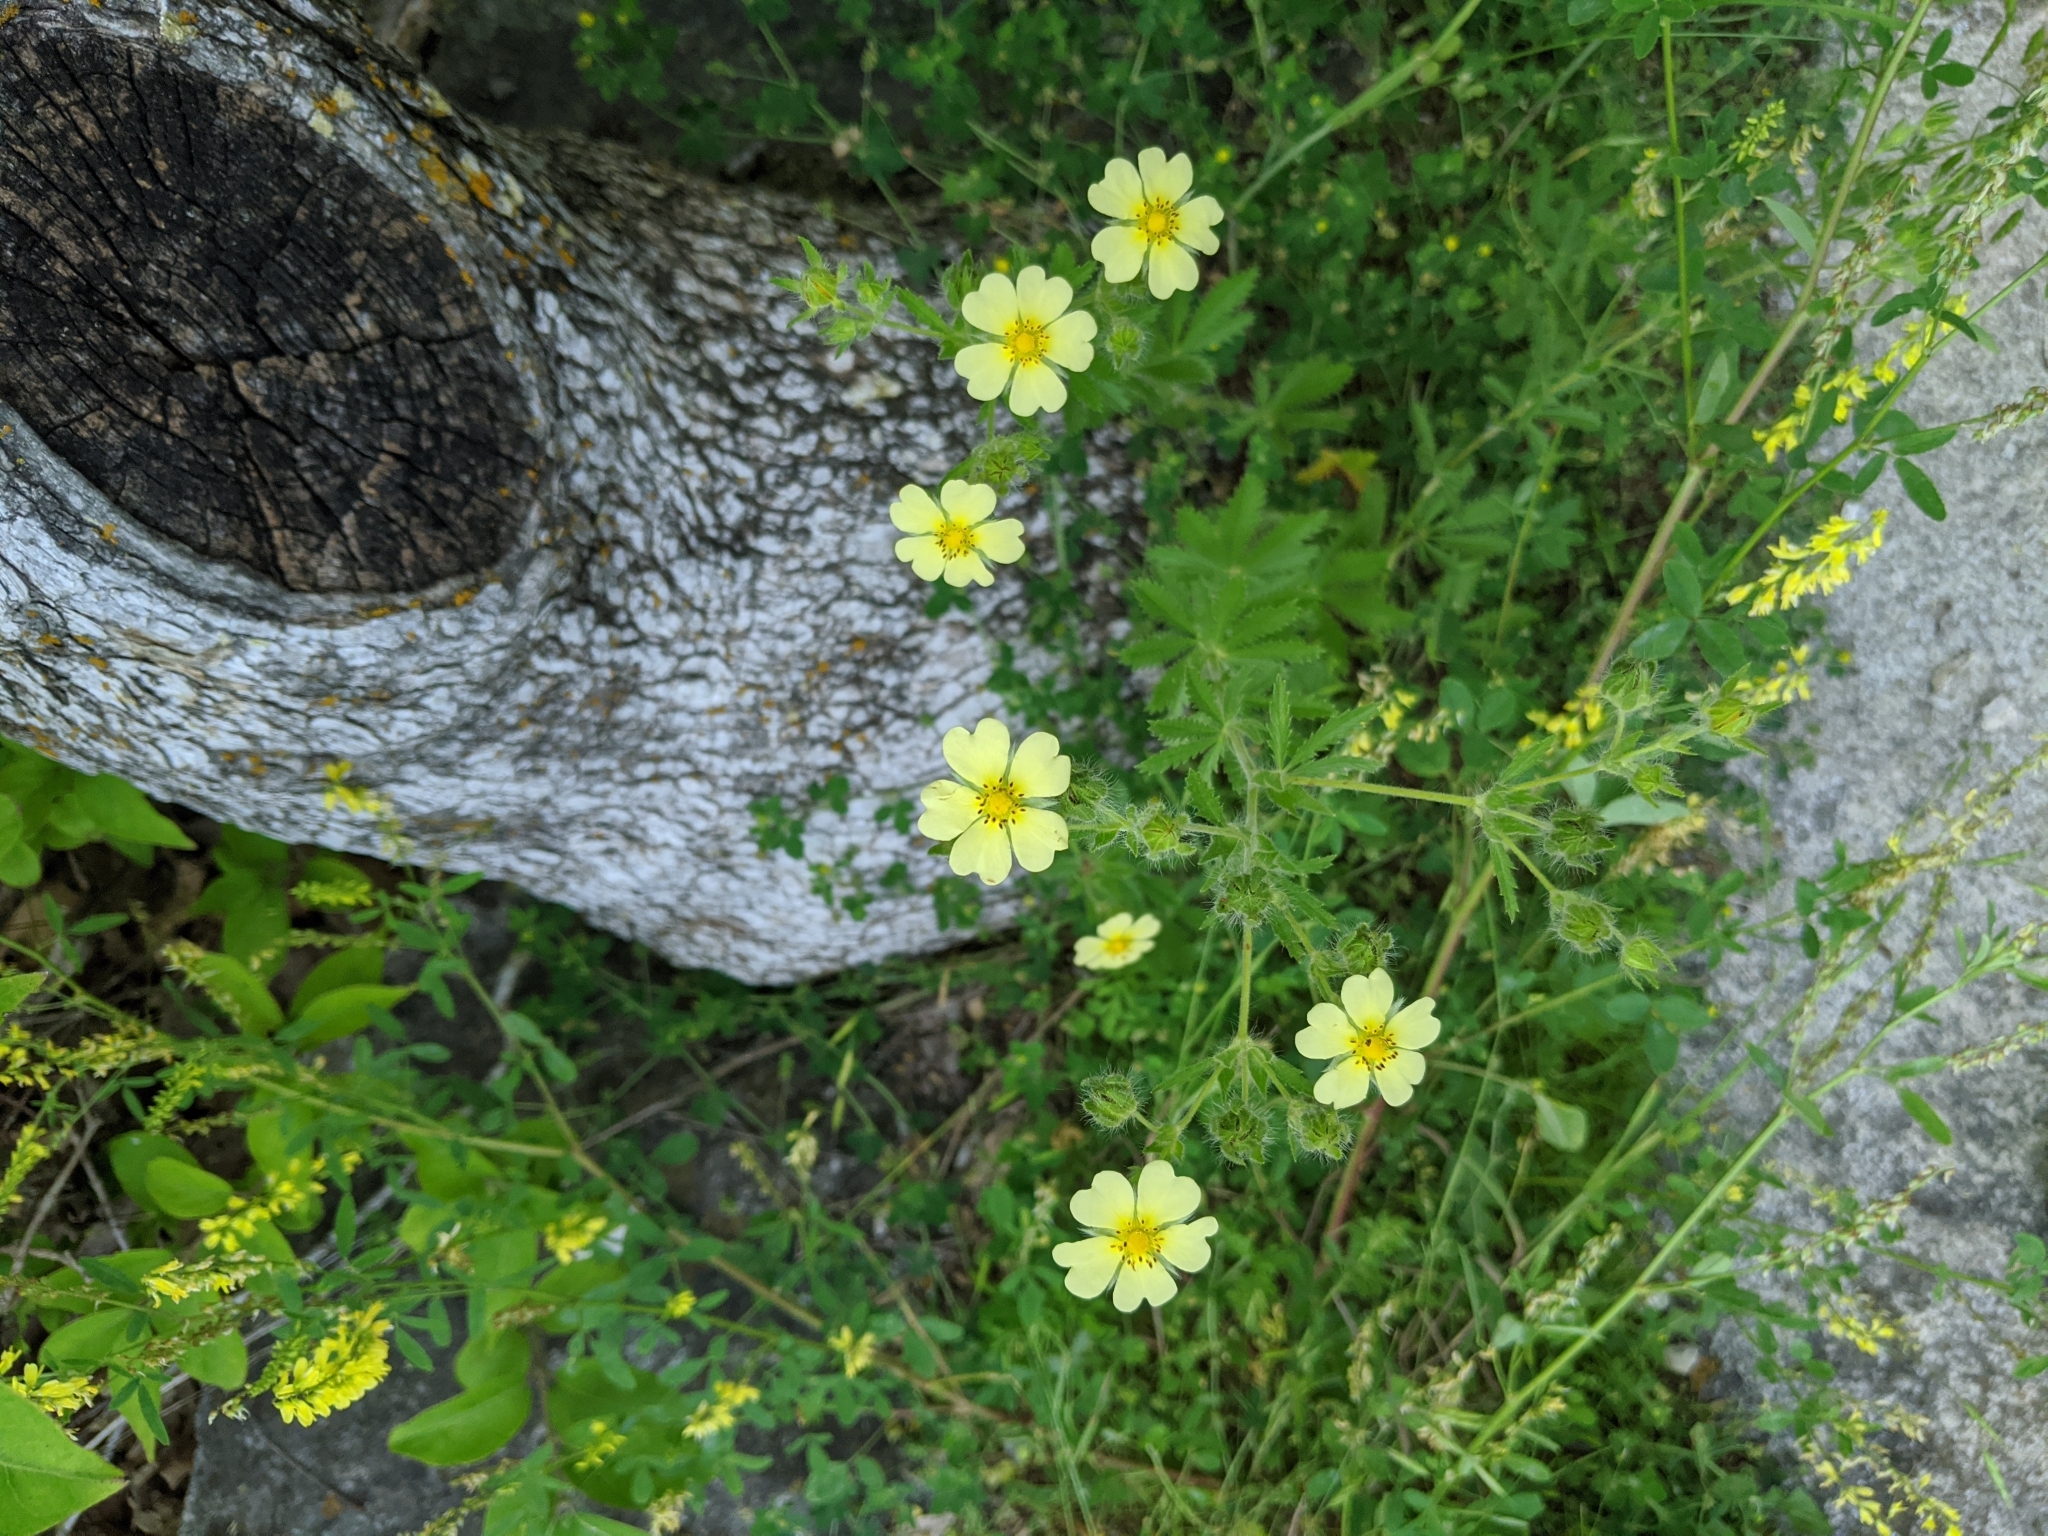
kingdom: Plantae
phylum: Tracheophyta
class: Magnoliopsida
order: Rosales
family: Rosaceae
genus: Potentilla
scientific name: Potentilla recta
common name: Sulphur cinquefoil
